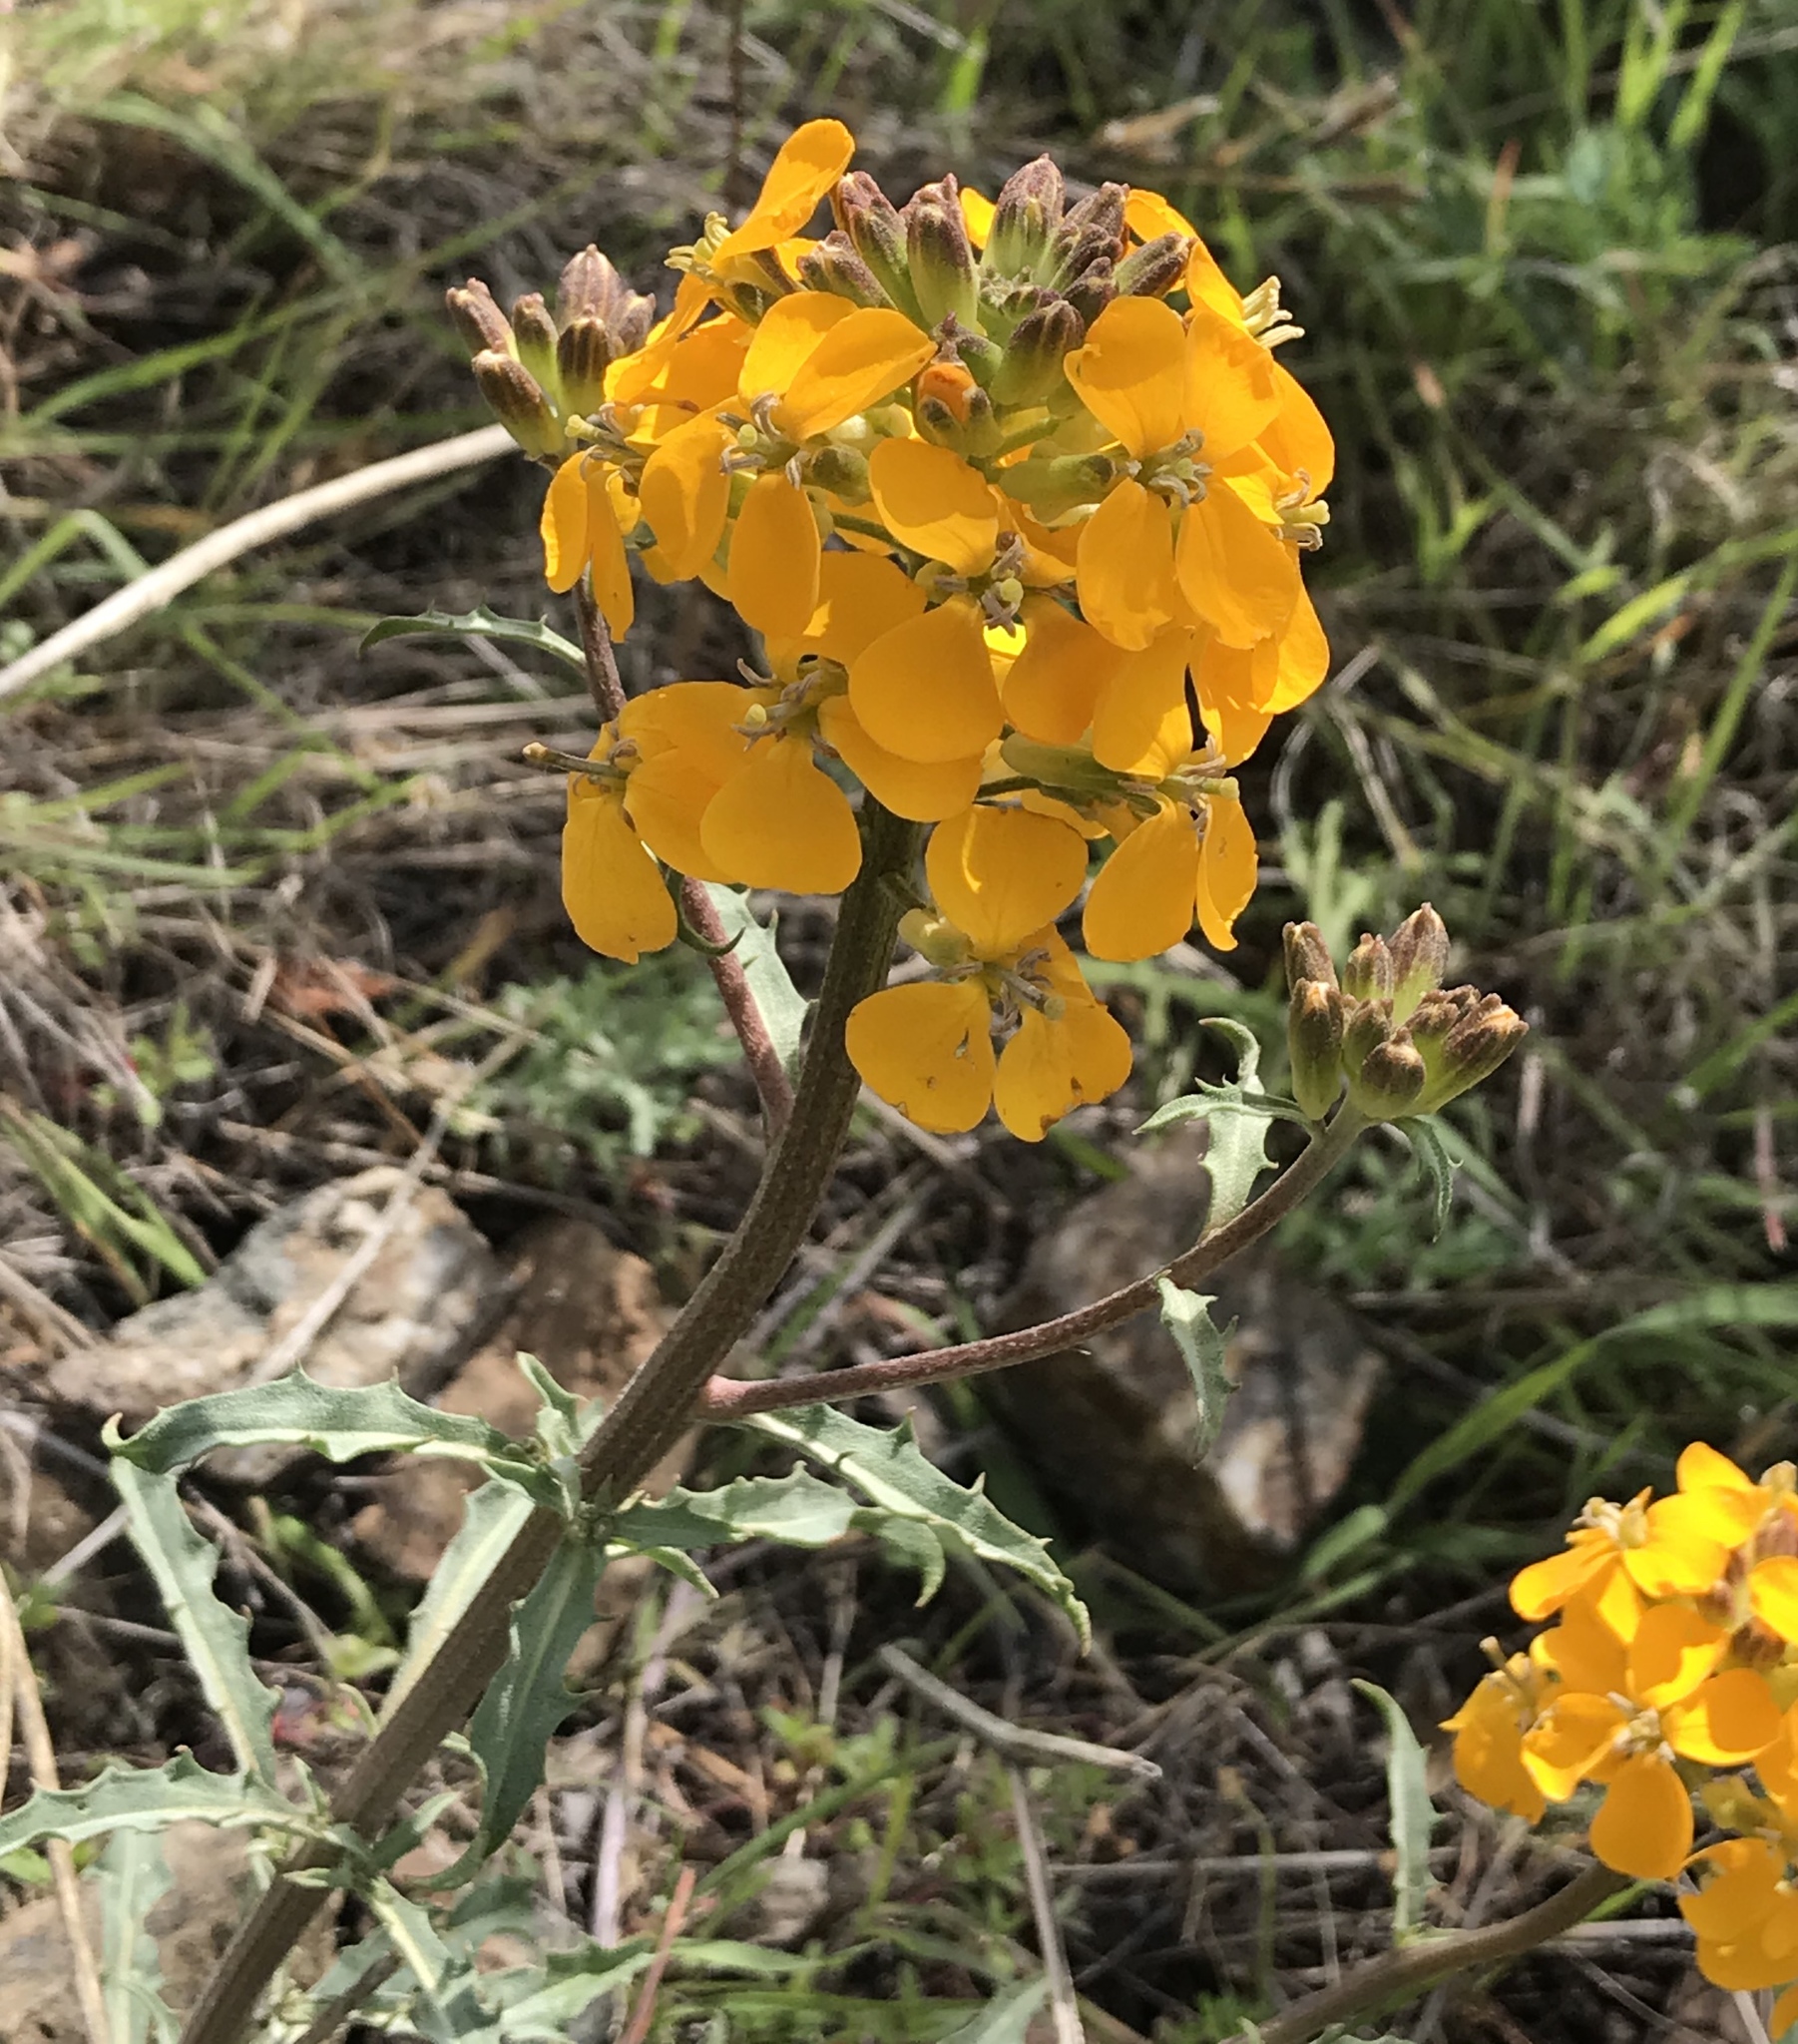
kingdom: Plantae
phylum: Tracheophyta
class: Magnoliopsida
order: Brassicales
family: Brassicaceae
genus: Erysimum
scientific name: Erysimum capitatum
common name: Western wallflower
